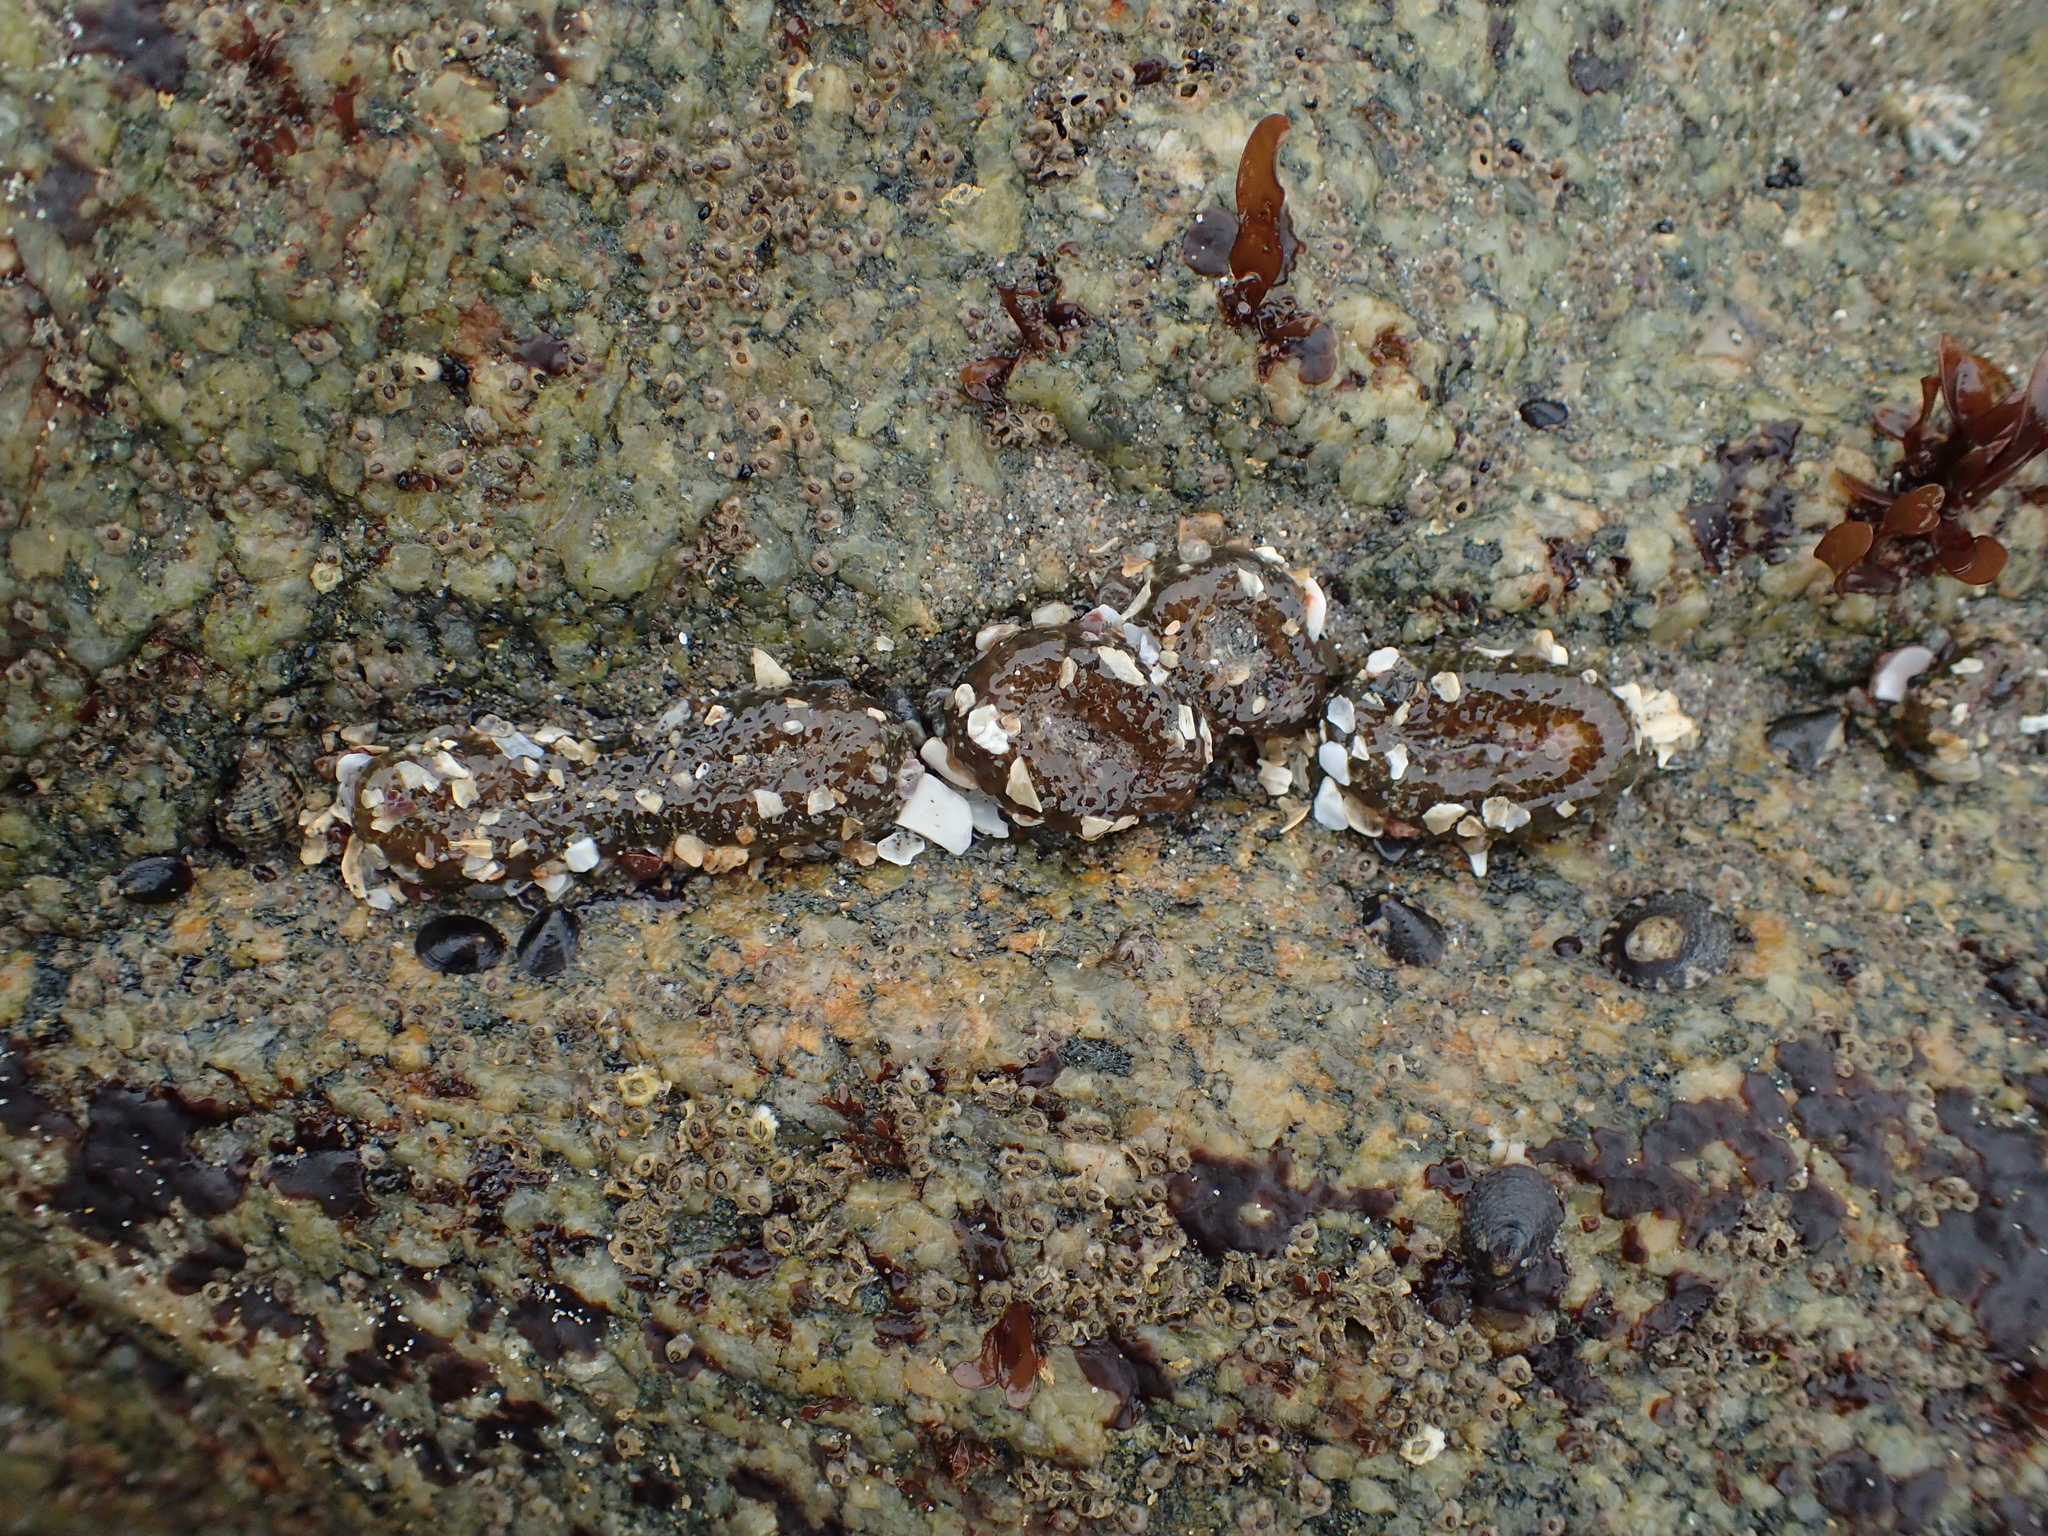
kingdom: Animalia
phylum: Cnidaria
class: Anthozoa
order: Actiniaria
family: Actiniidae
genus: Anthopleura
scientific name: Anthopleura elegantissima
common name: Clonal anemone
